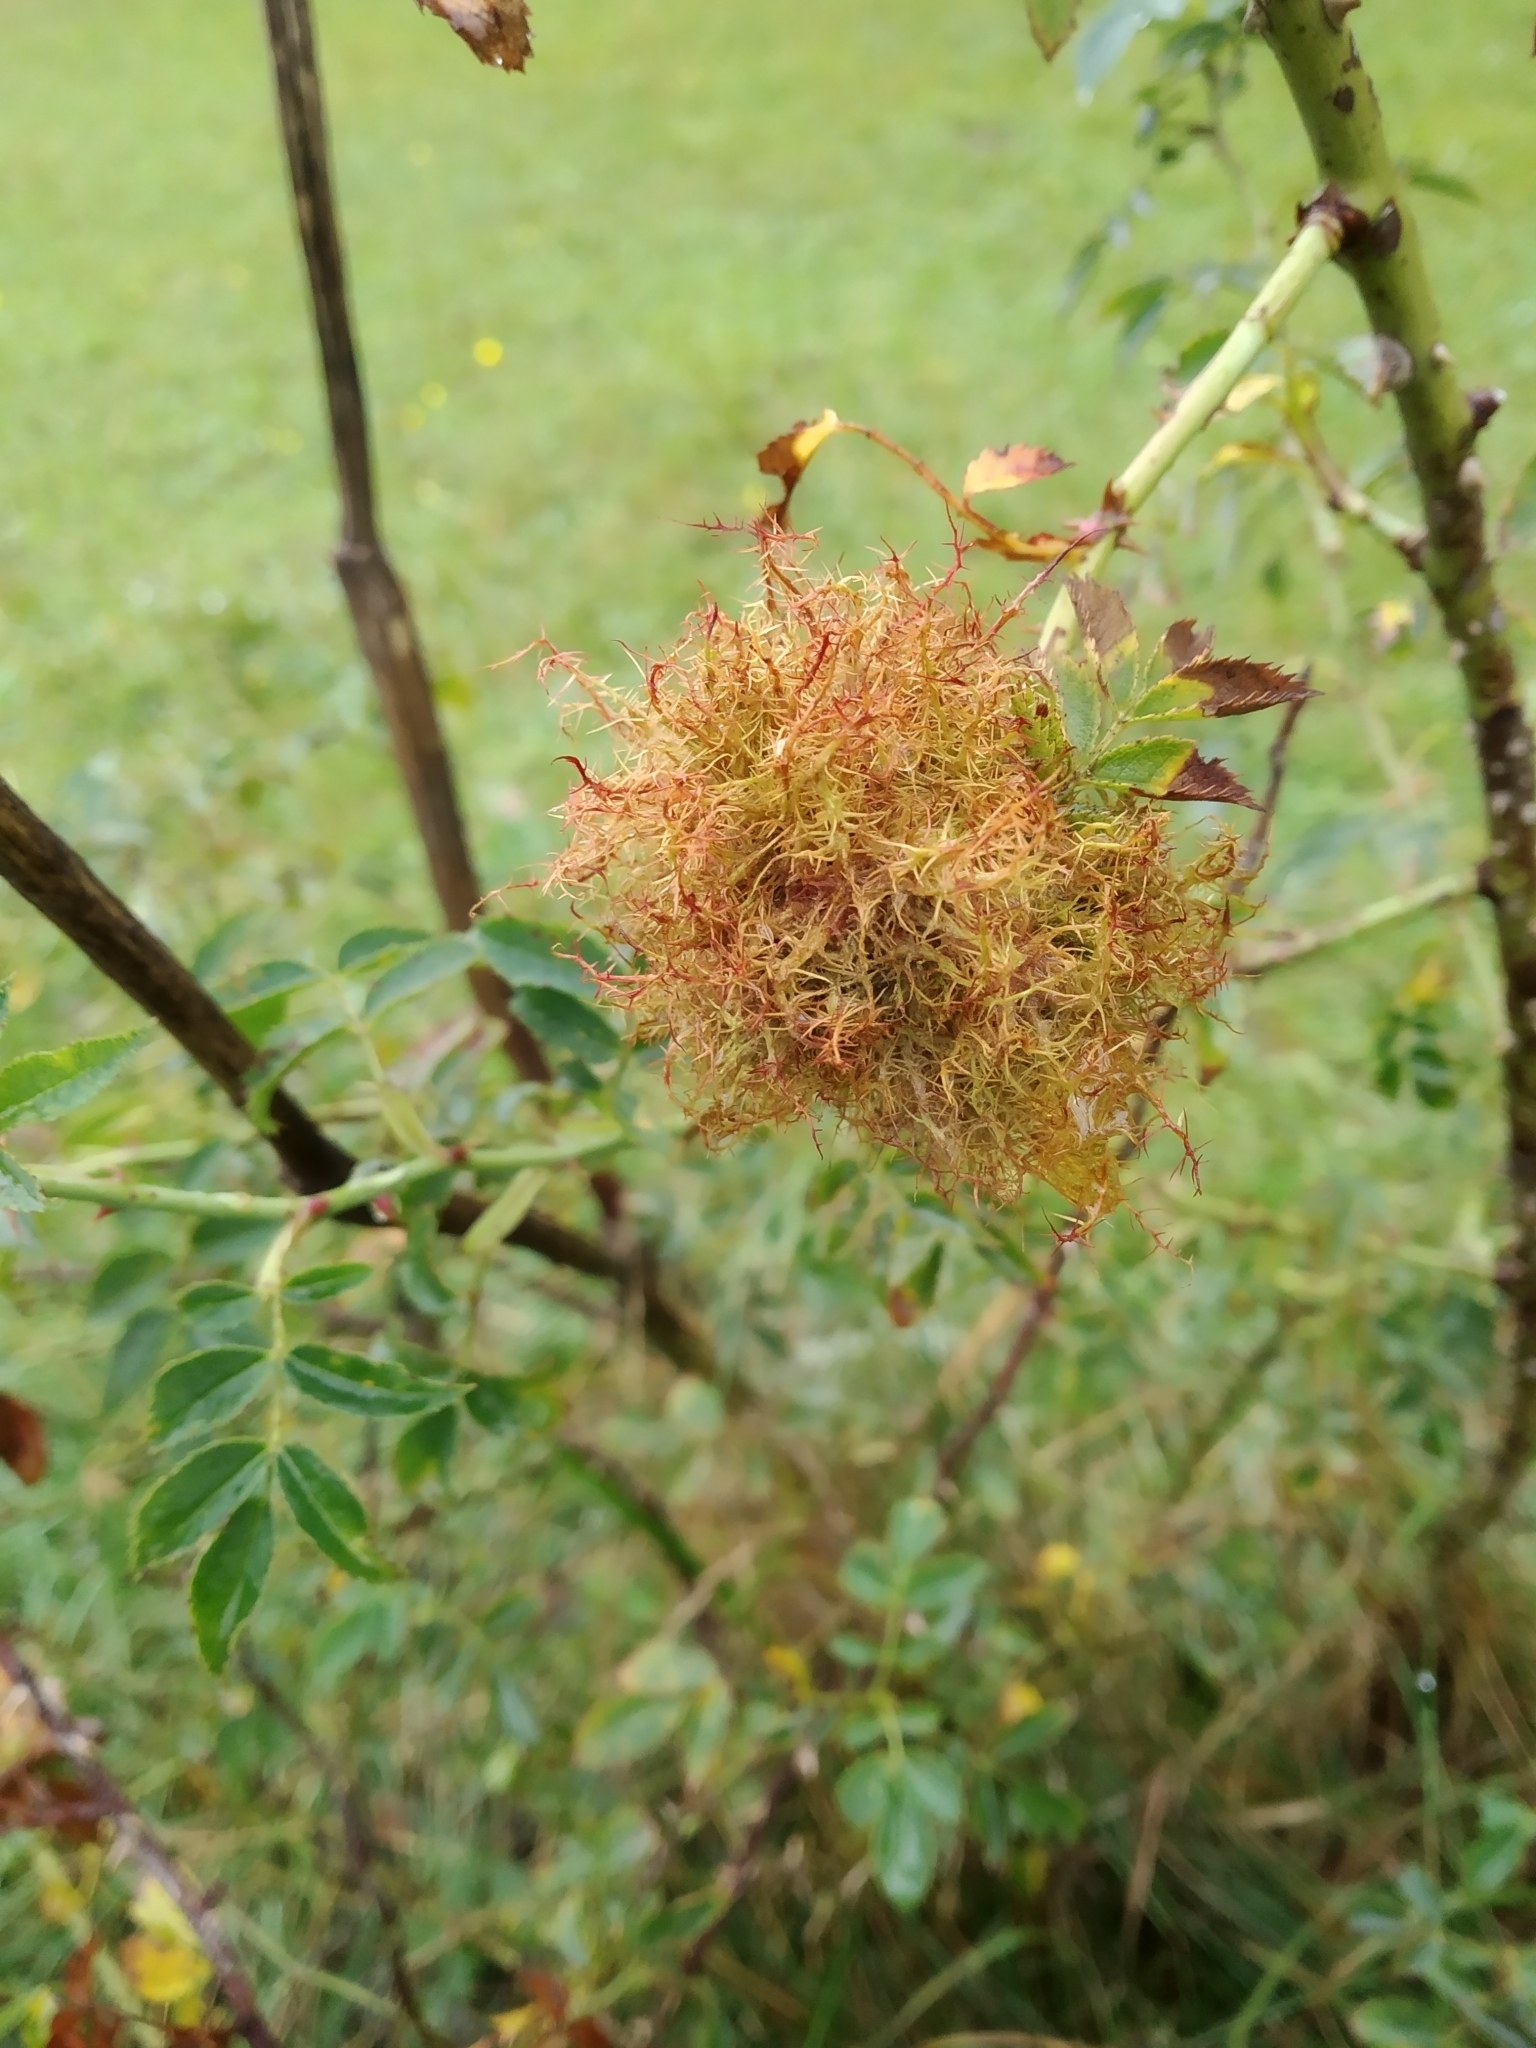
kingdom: Animalia
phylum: Arthropoda
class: Insecta
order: Hymenoptera
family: Cynipidae
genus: Diplolepis
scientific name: Diplolepis rosae
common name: Bedeguar gall
